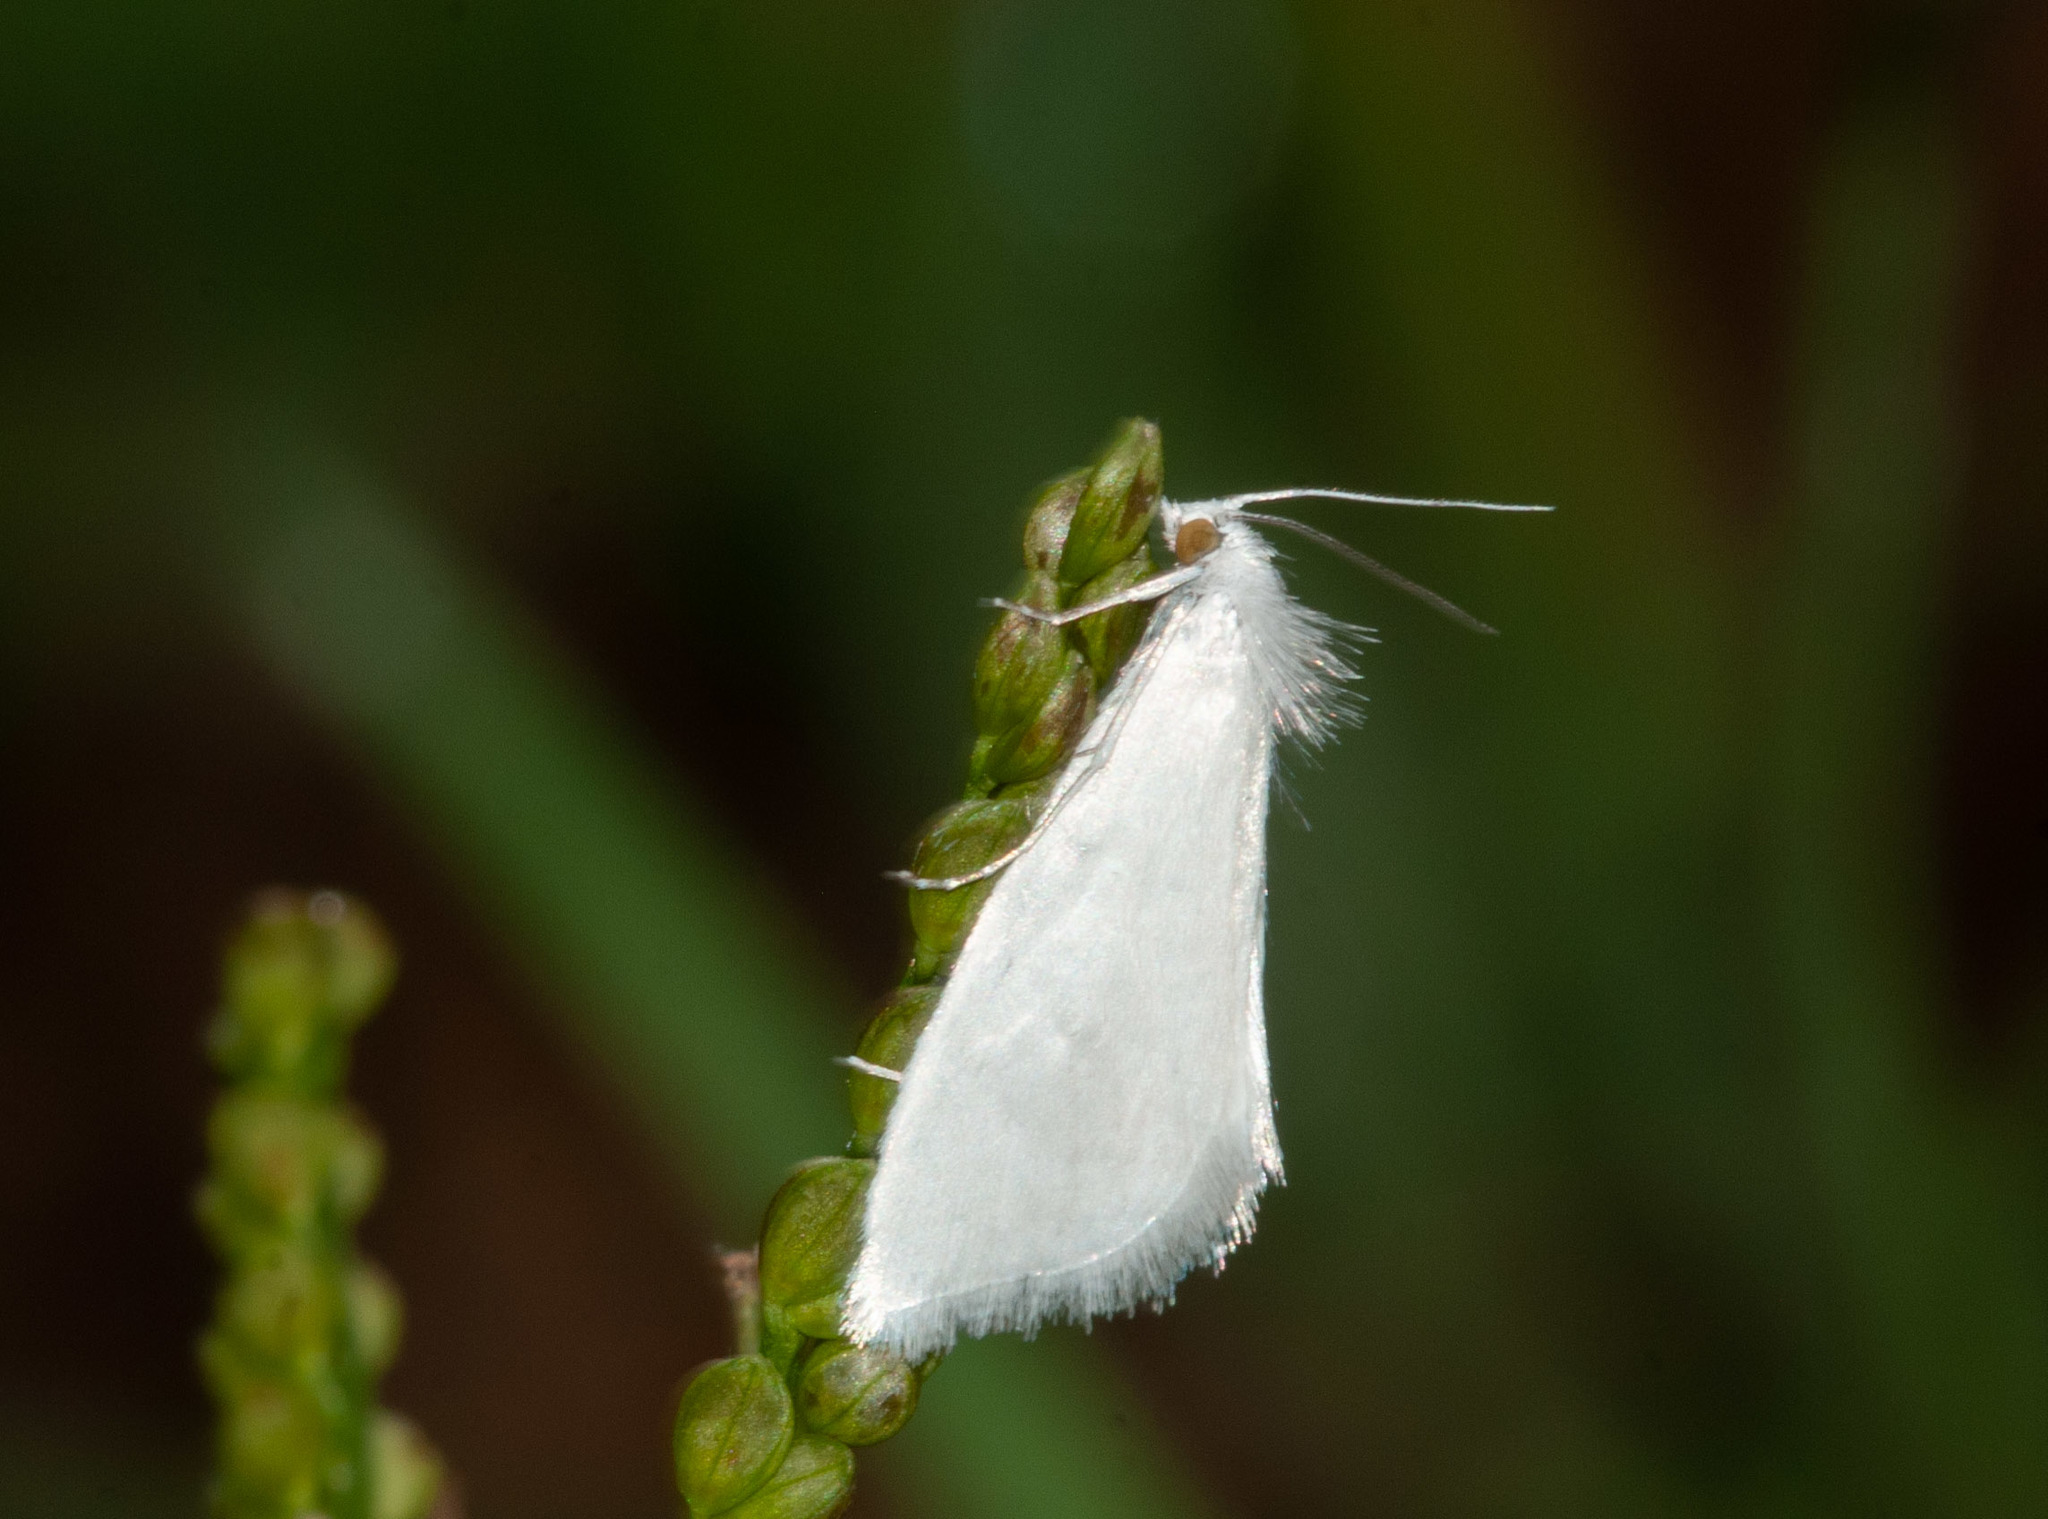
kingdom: Animalia
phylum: Arthropoda
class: Insecta
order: Lepidoptera
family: Crambidae
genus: Tipanaea
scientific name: Tipanaea patulella
